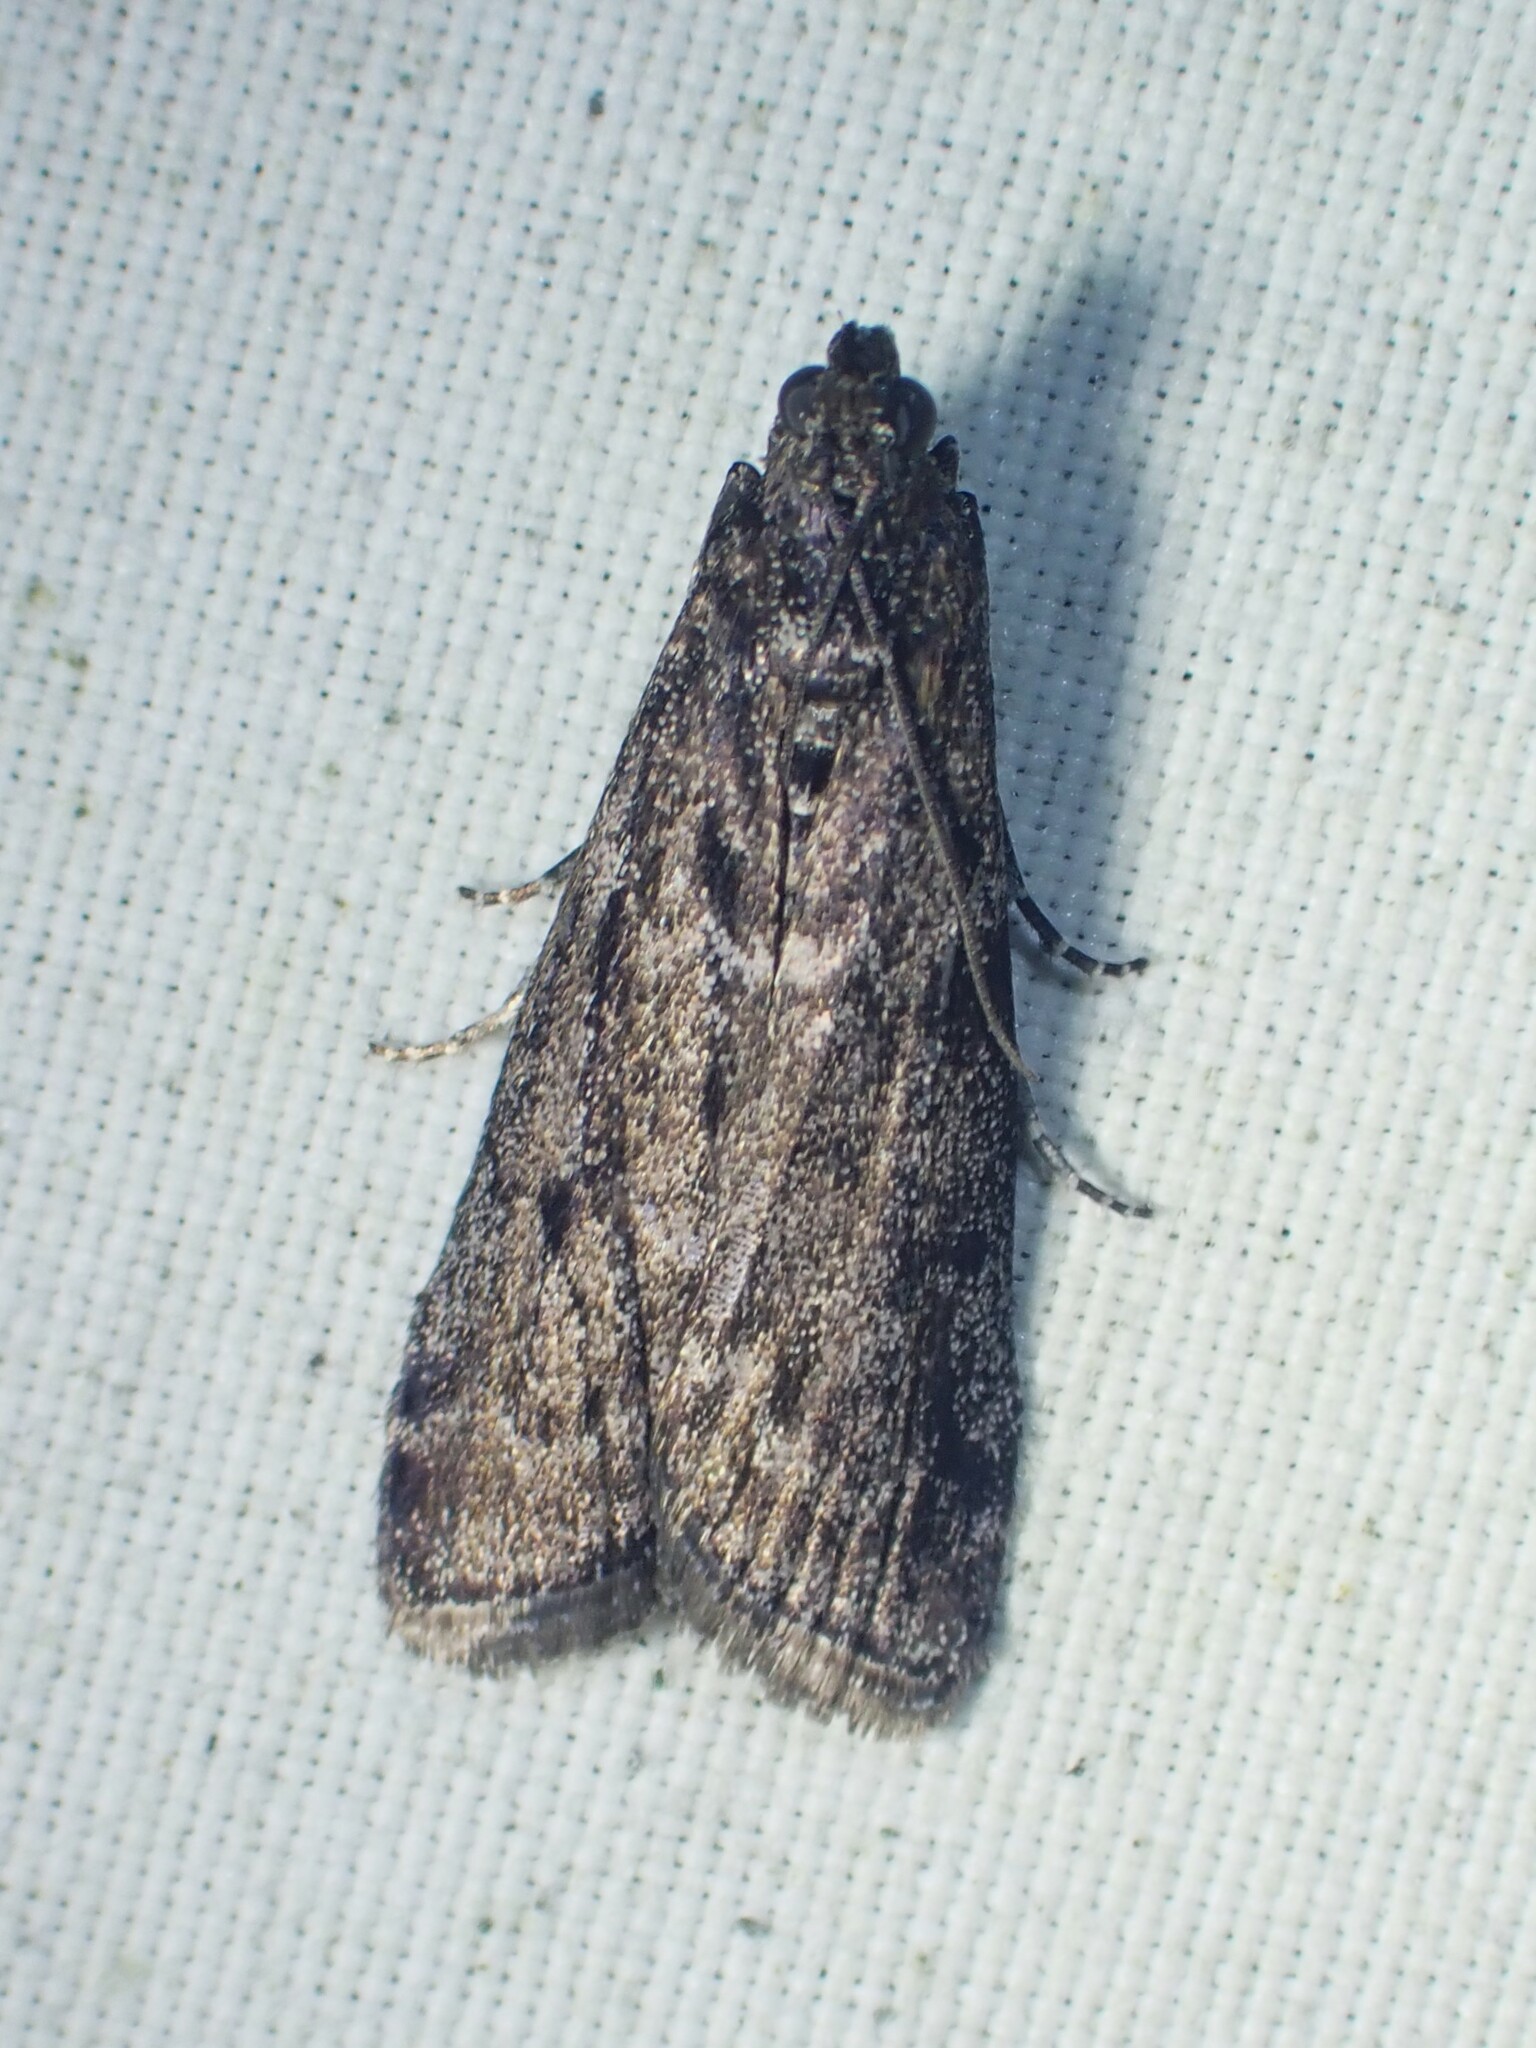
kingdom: Animalia
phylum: Arthropoda
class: Insecta
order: Lepidoptera
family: Pyralidae
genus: Pyla
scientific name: Pyla fusca
